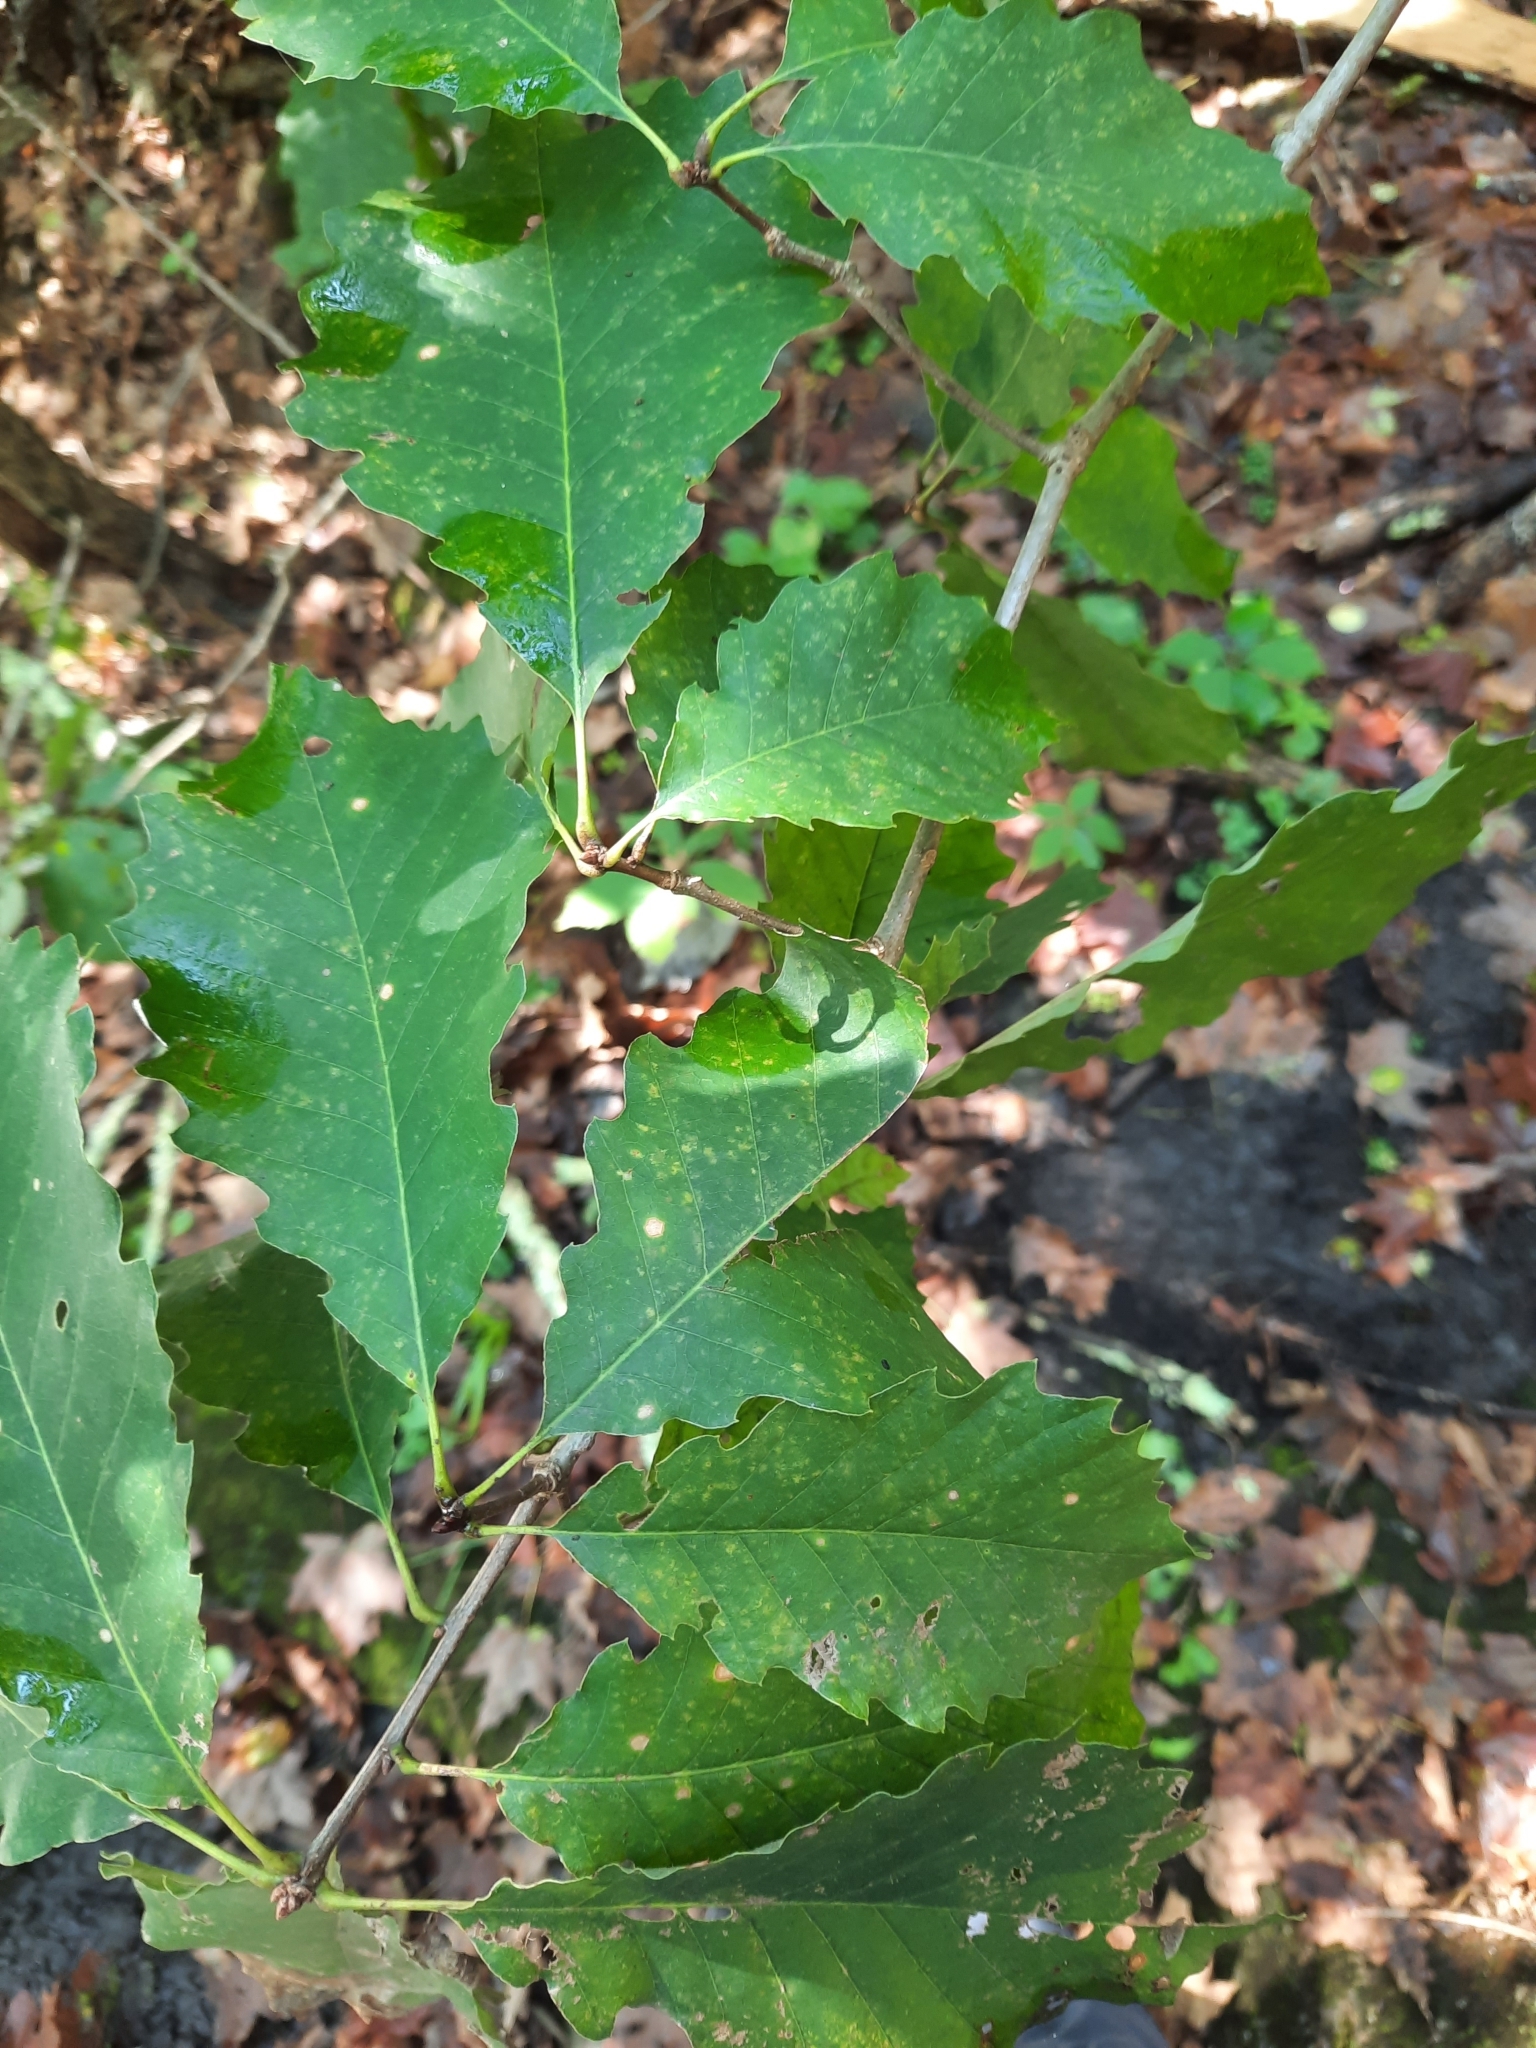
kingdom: Plantae
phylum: Tracheophyta
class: Magnoliopsida
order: Fagales
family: Fagaceae
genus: Quercus
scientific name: Quercus montana
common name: Chestnut oak
